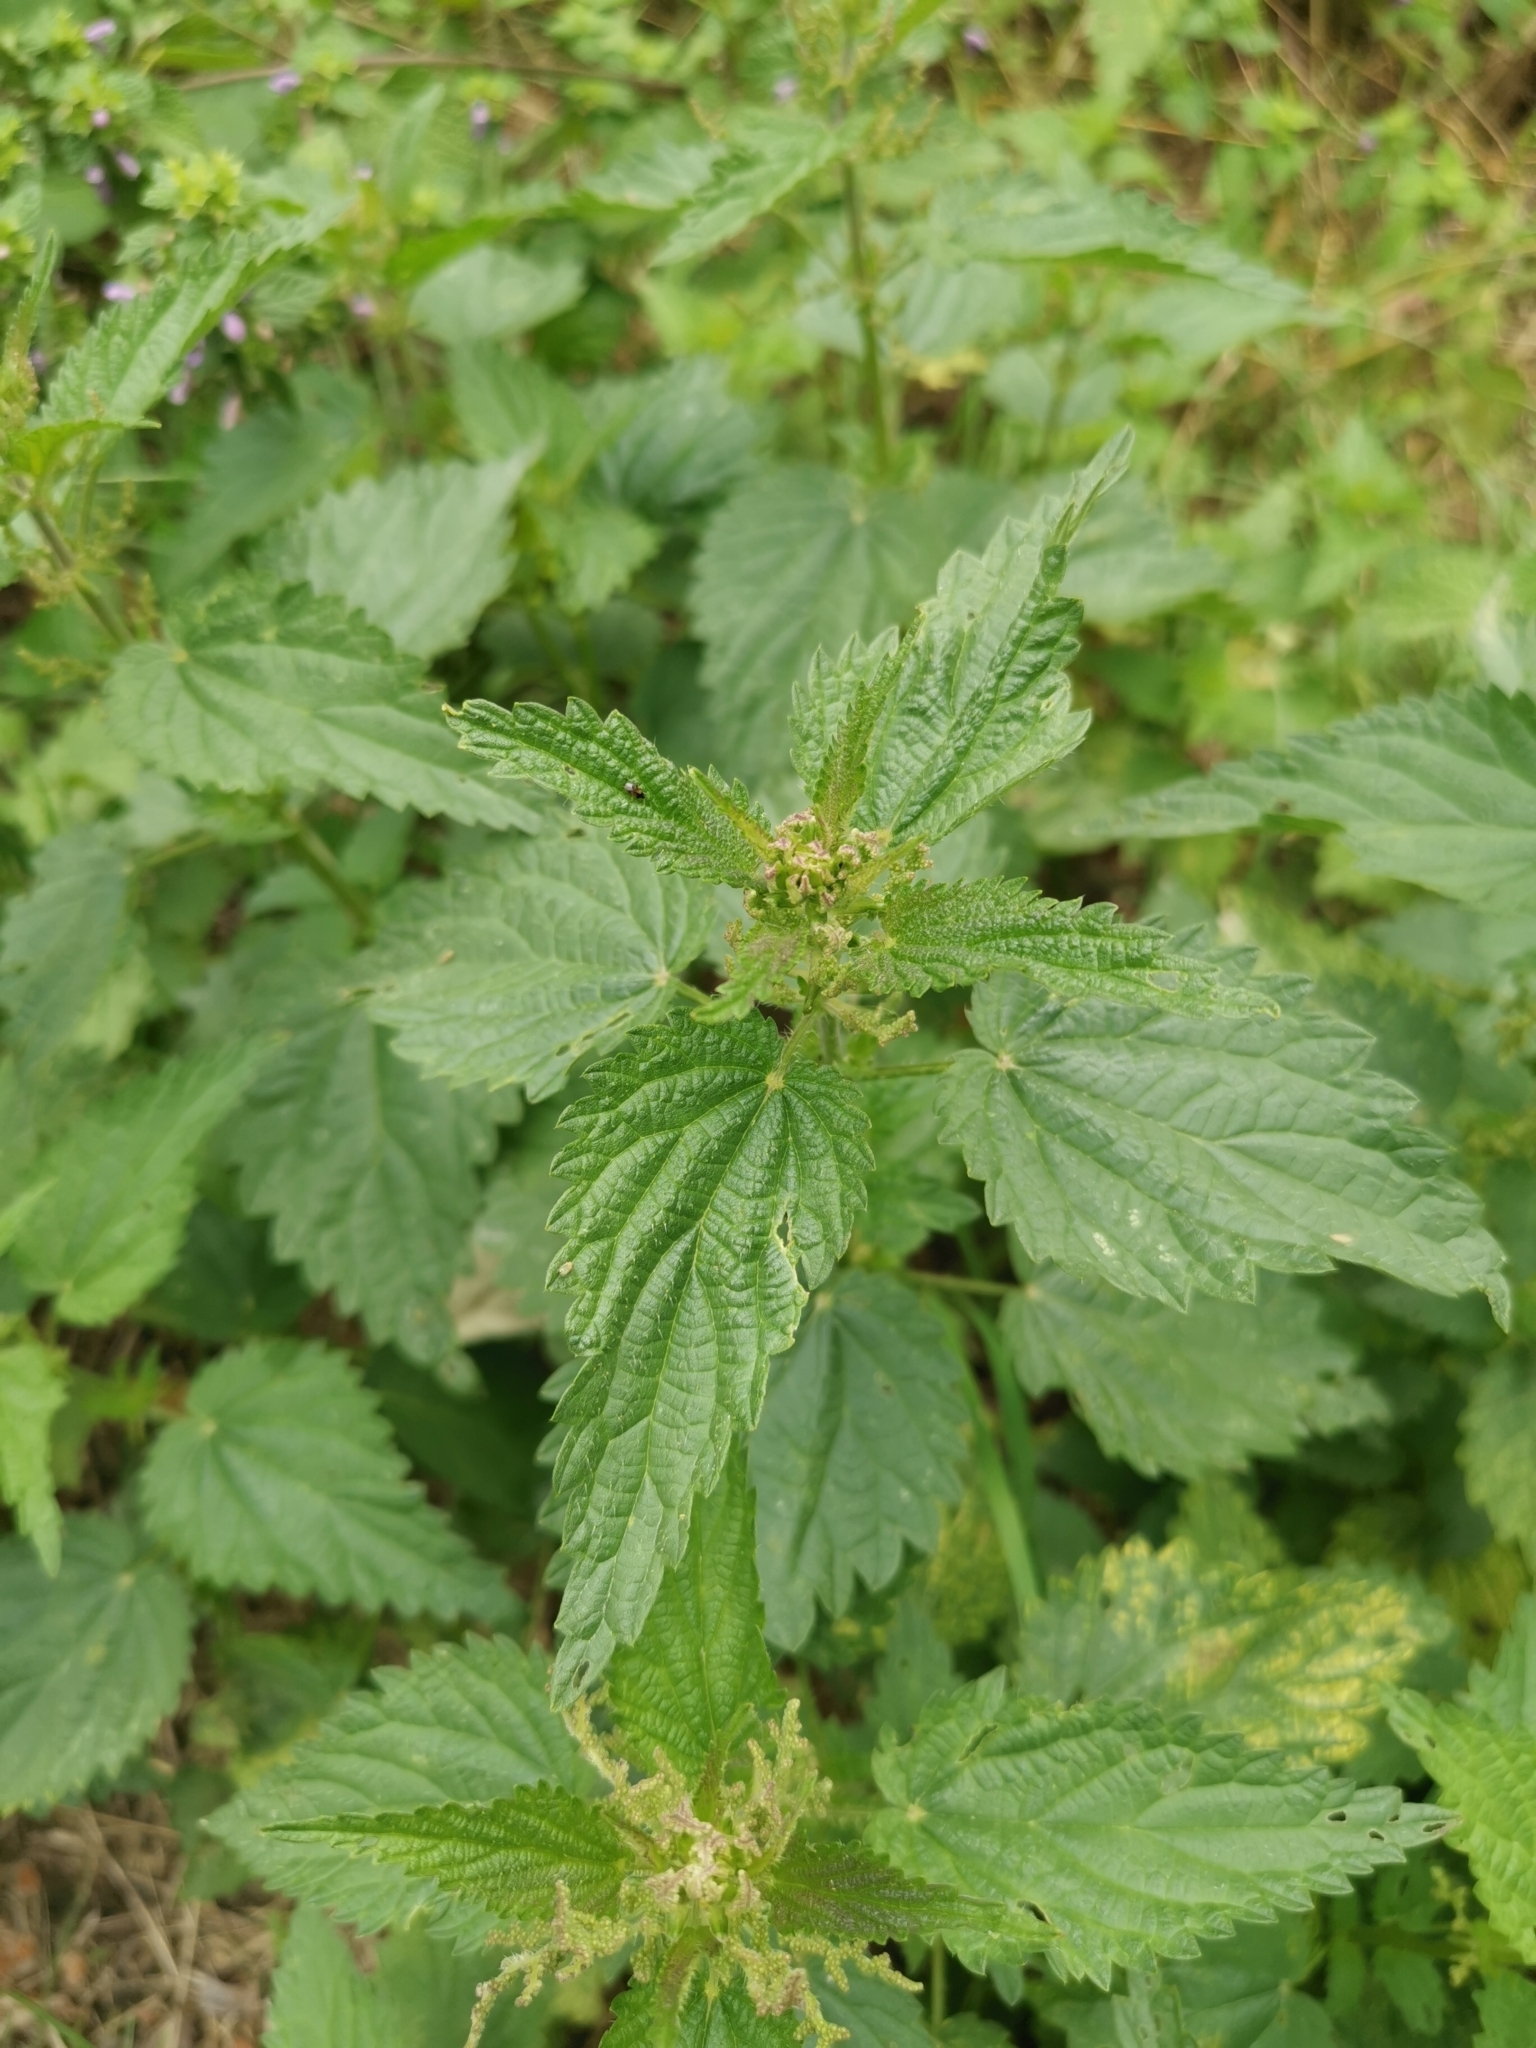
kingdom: Plantae
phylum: Tracheophyta
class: Magnoliopsida
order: Rosales
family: Urticaceae
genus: Urtica
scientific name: Urtica dioica
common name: Common nettle
